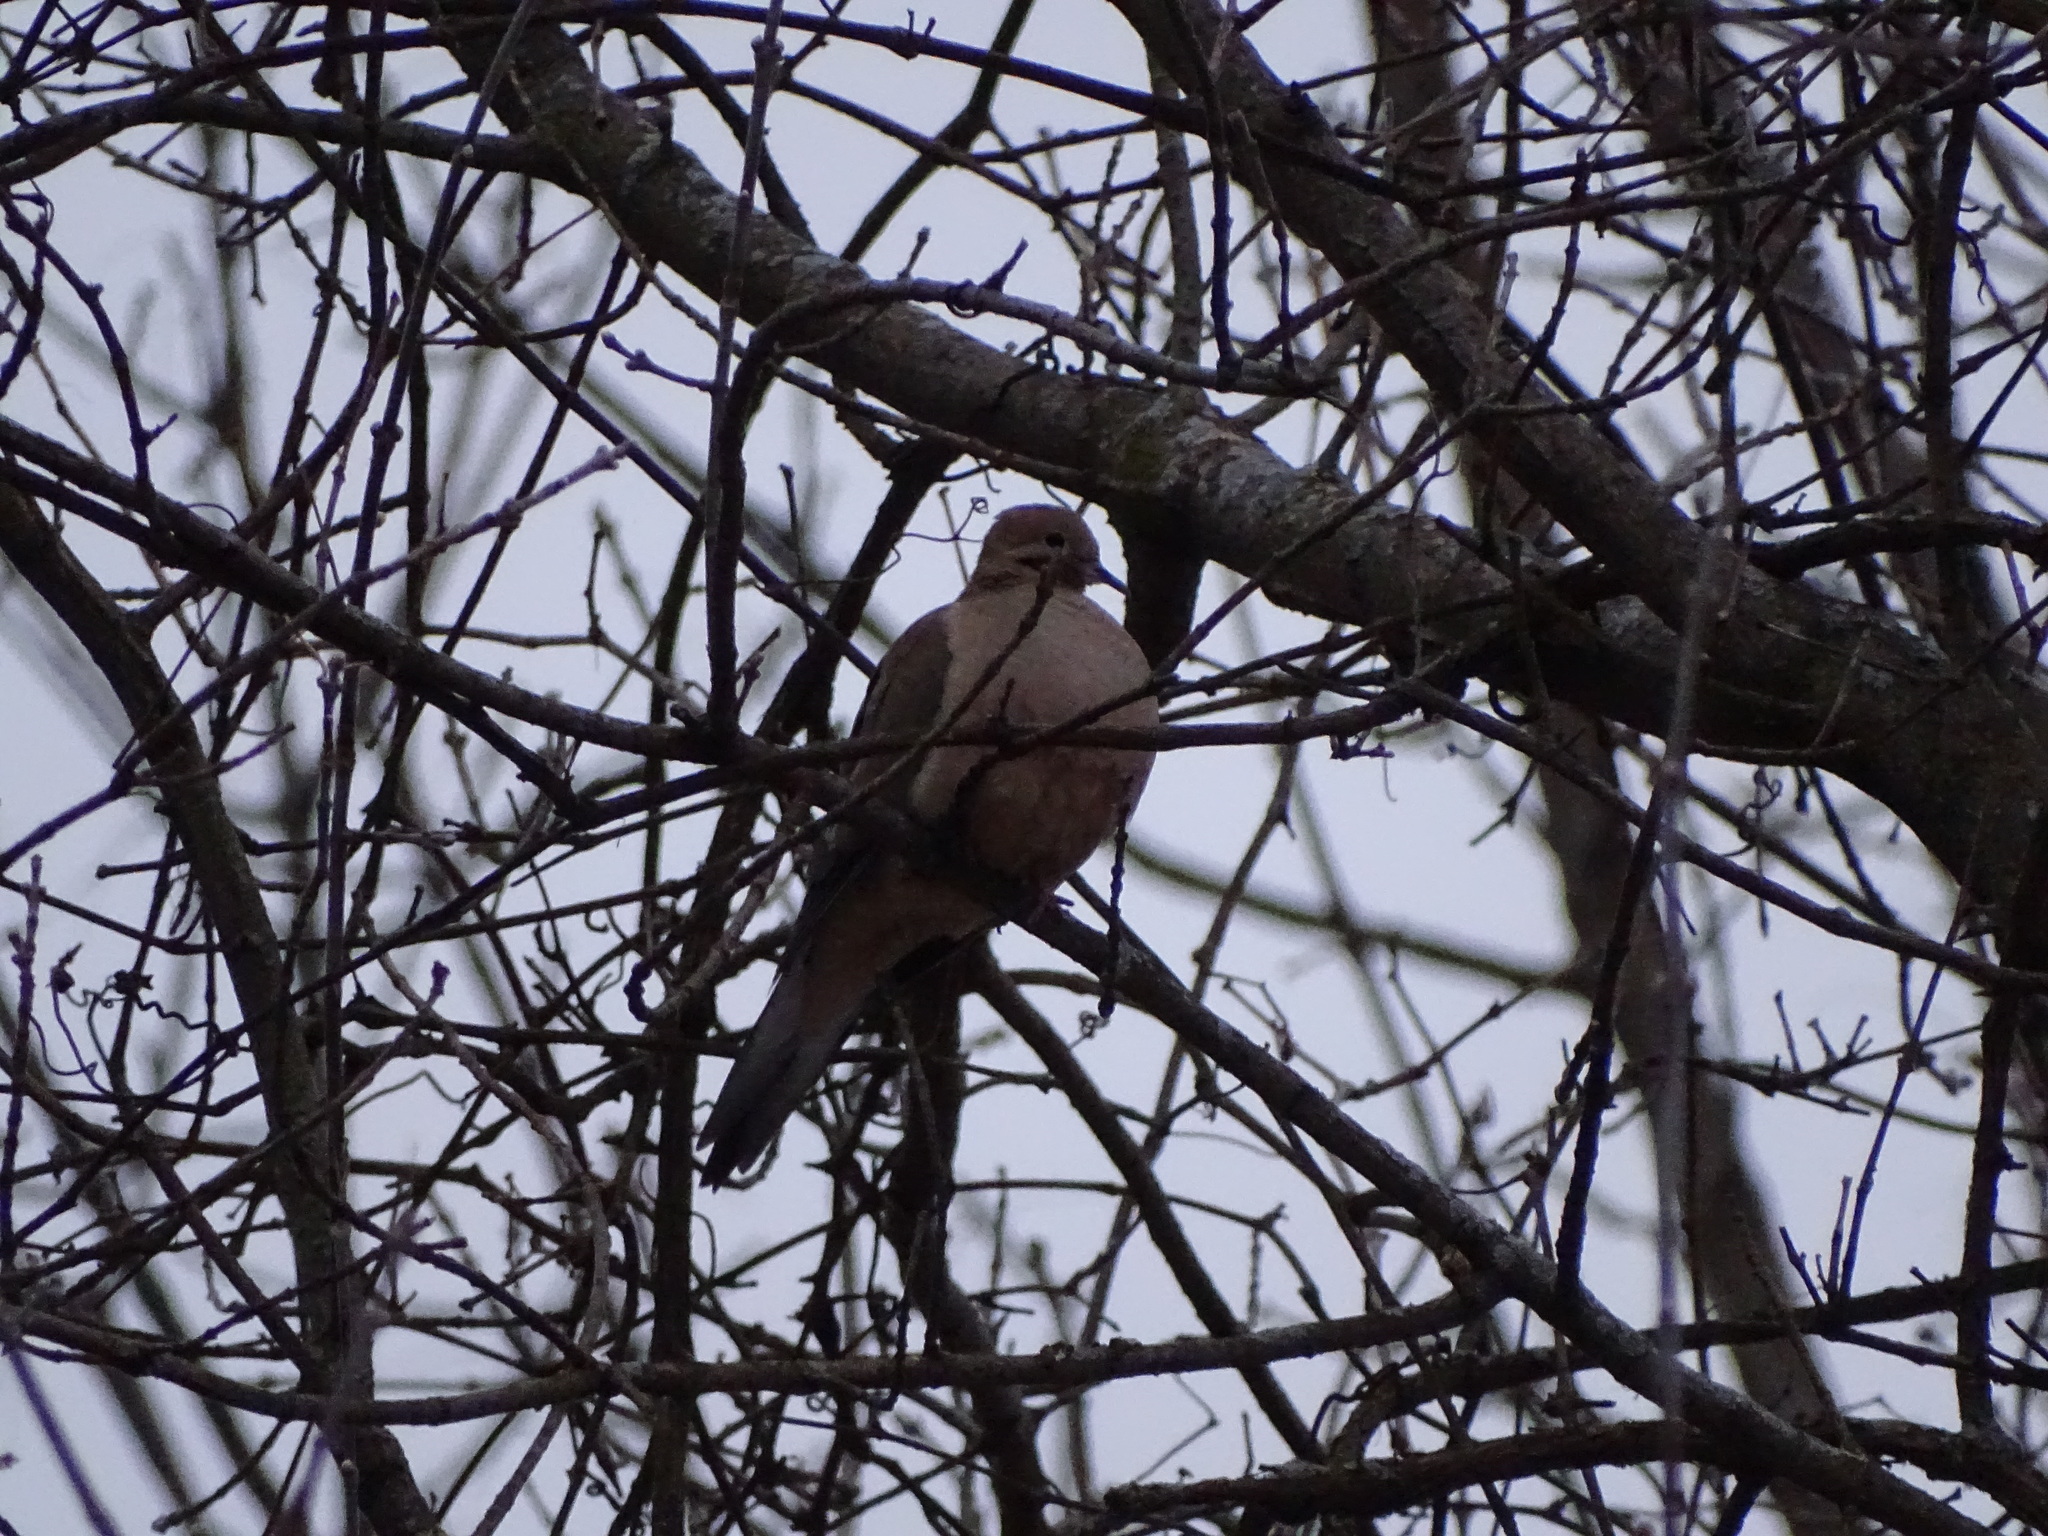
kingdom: Animalia
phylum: Chordata
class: Aves
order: Columbiformes
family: Columbidae
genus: Zenaida
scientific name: Zenaida macroura
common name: Mourning dove
